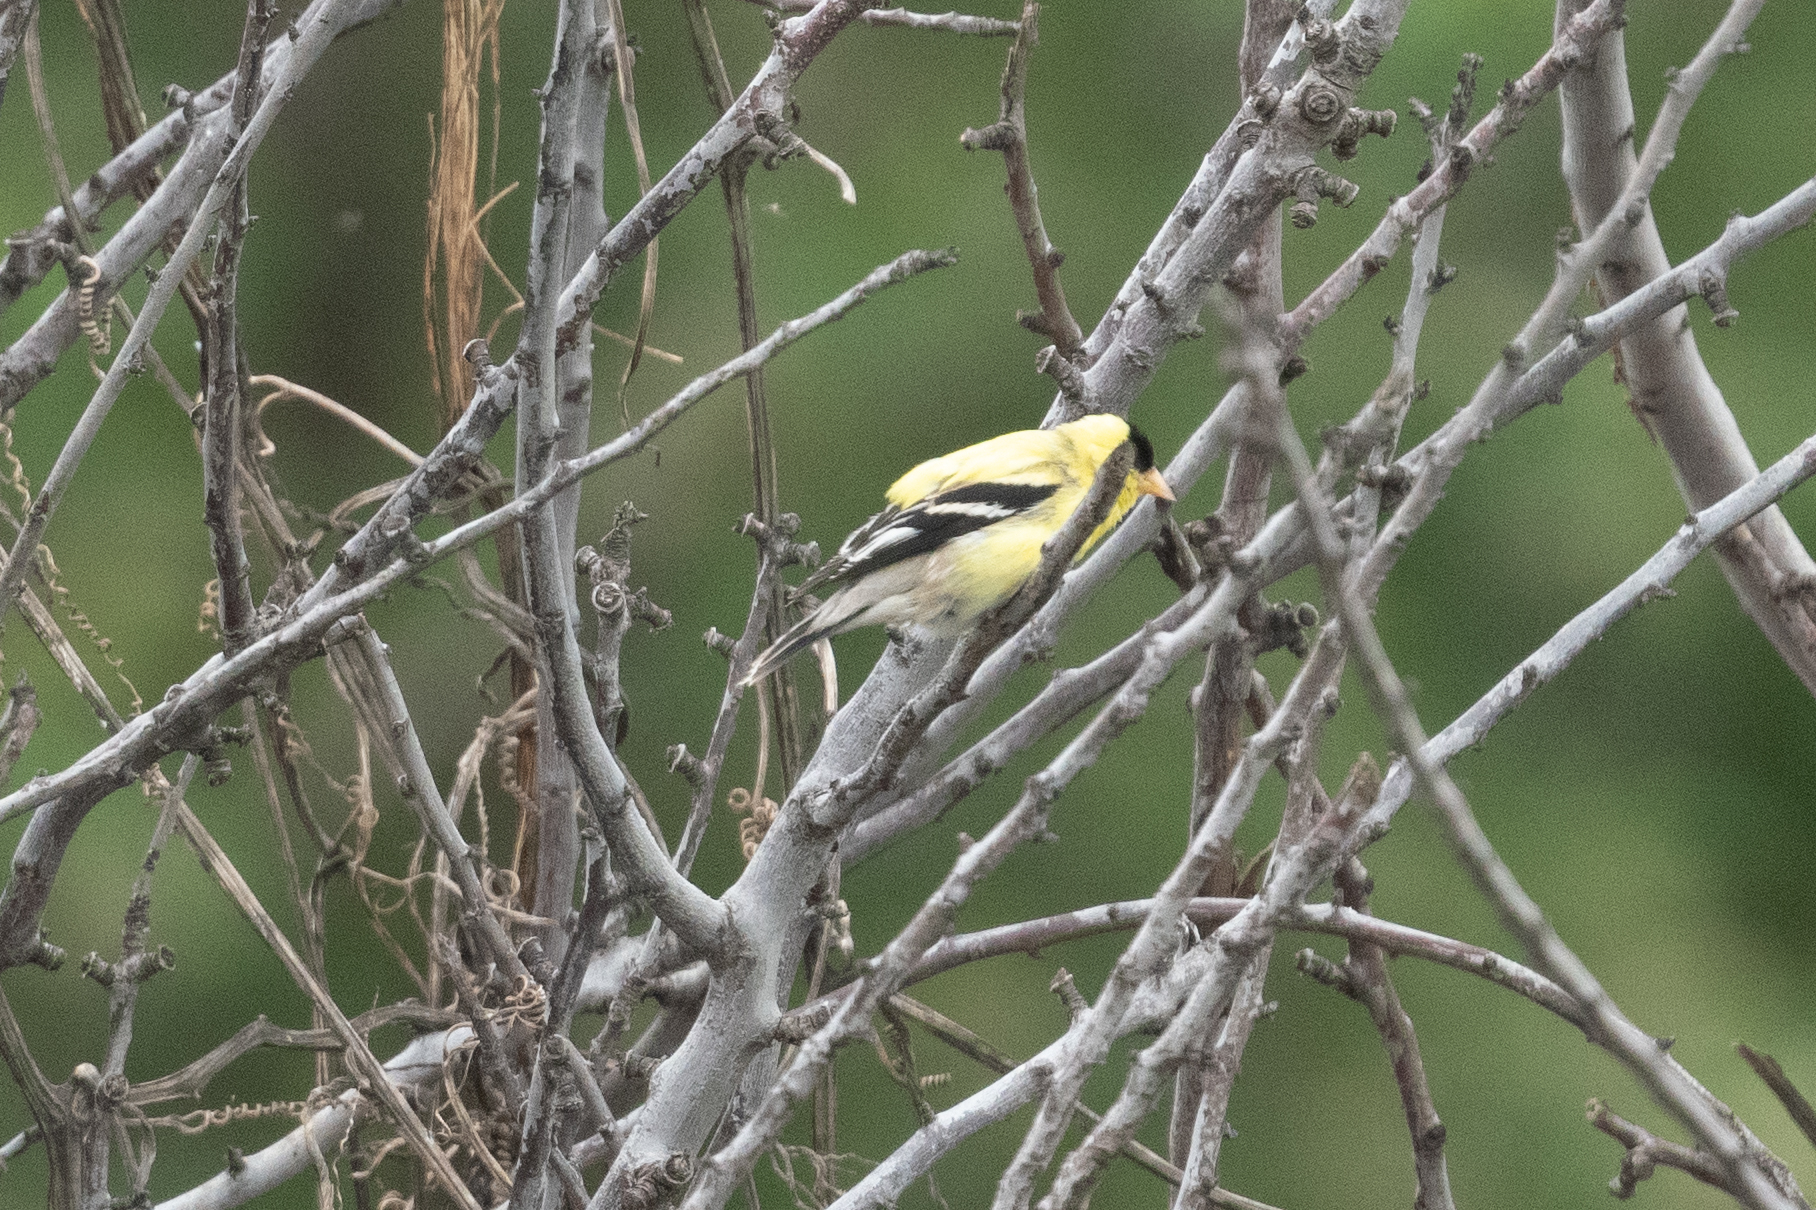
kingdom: Animalia
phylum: Chordata
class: Aves
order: Passeriformes
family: Fringillidae
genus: Spinus
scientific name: Spinus tristis
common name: American goldfinch
